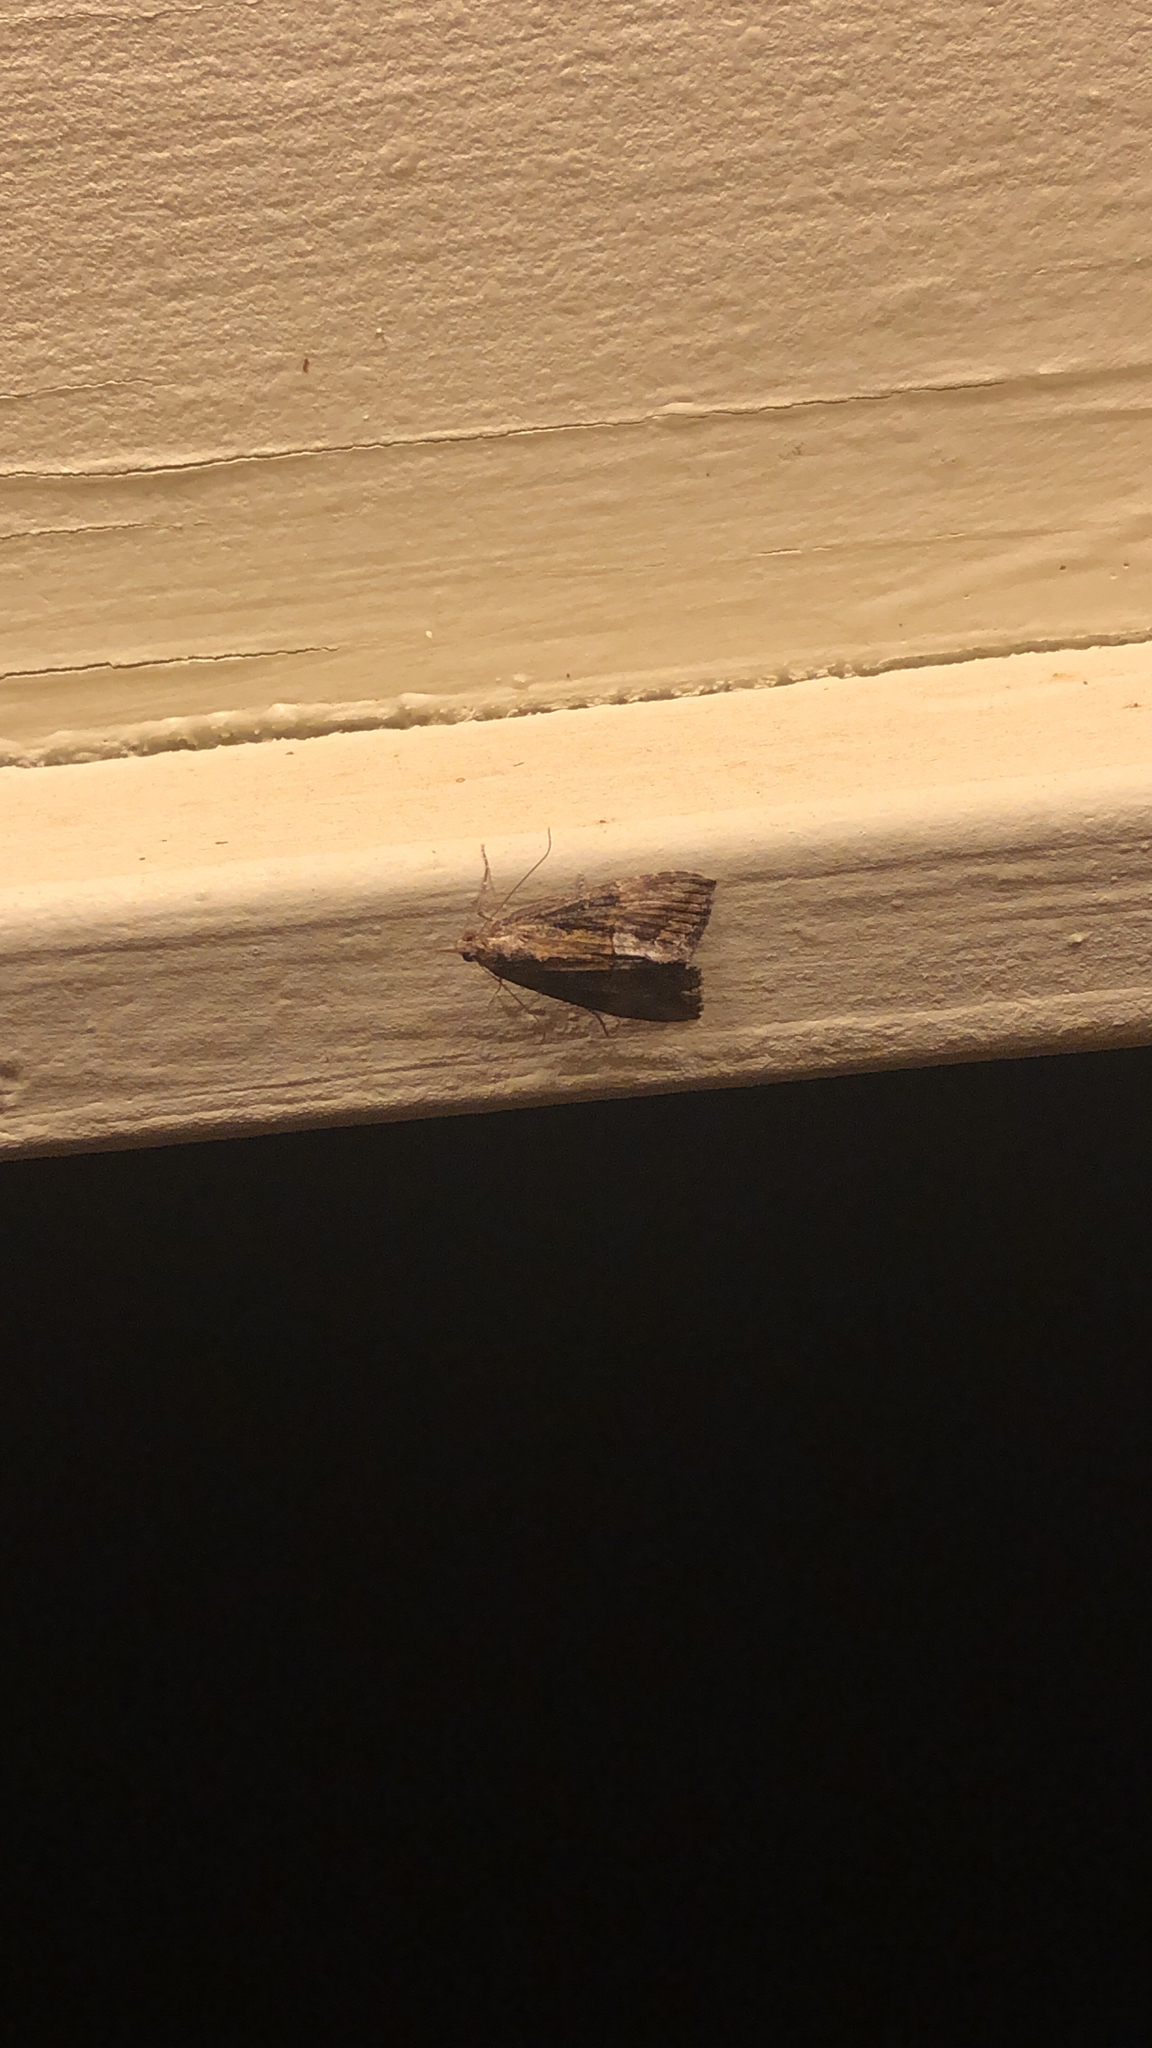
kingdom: Animalia
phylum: Arthropoda
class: Insecta
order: Lepidoptera
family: Erebidae
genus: Hypena
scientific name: Hypena scabra
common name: Green cloverworm
